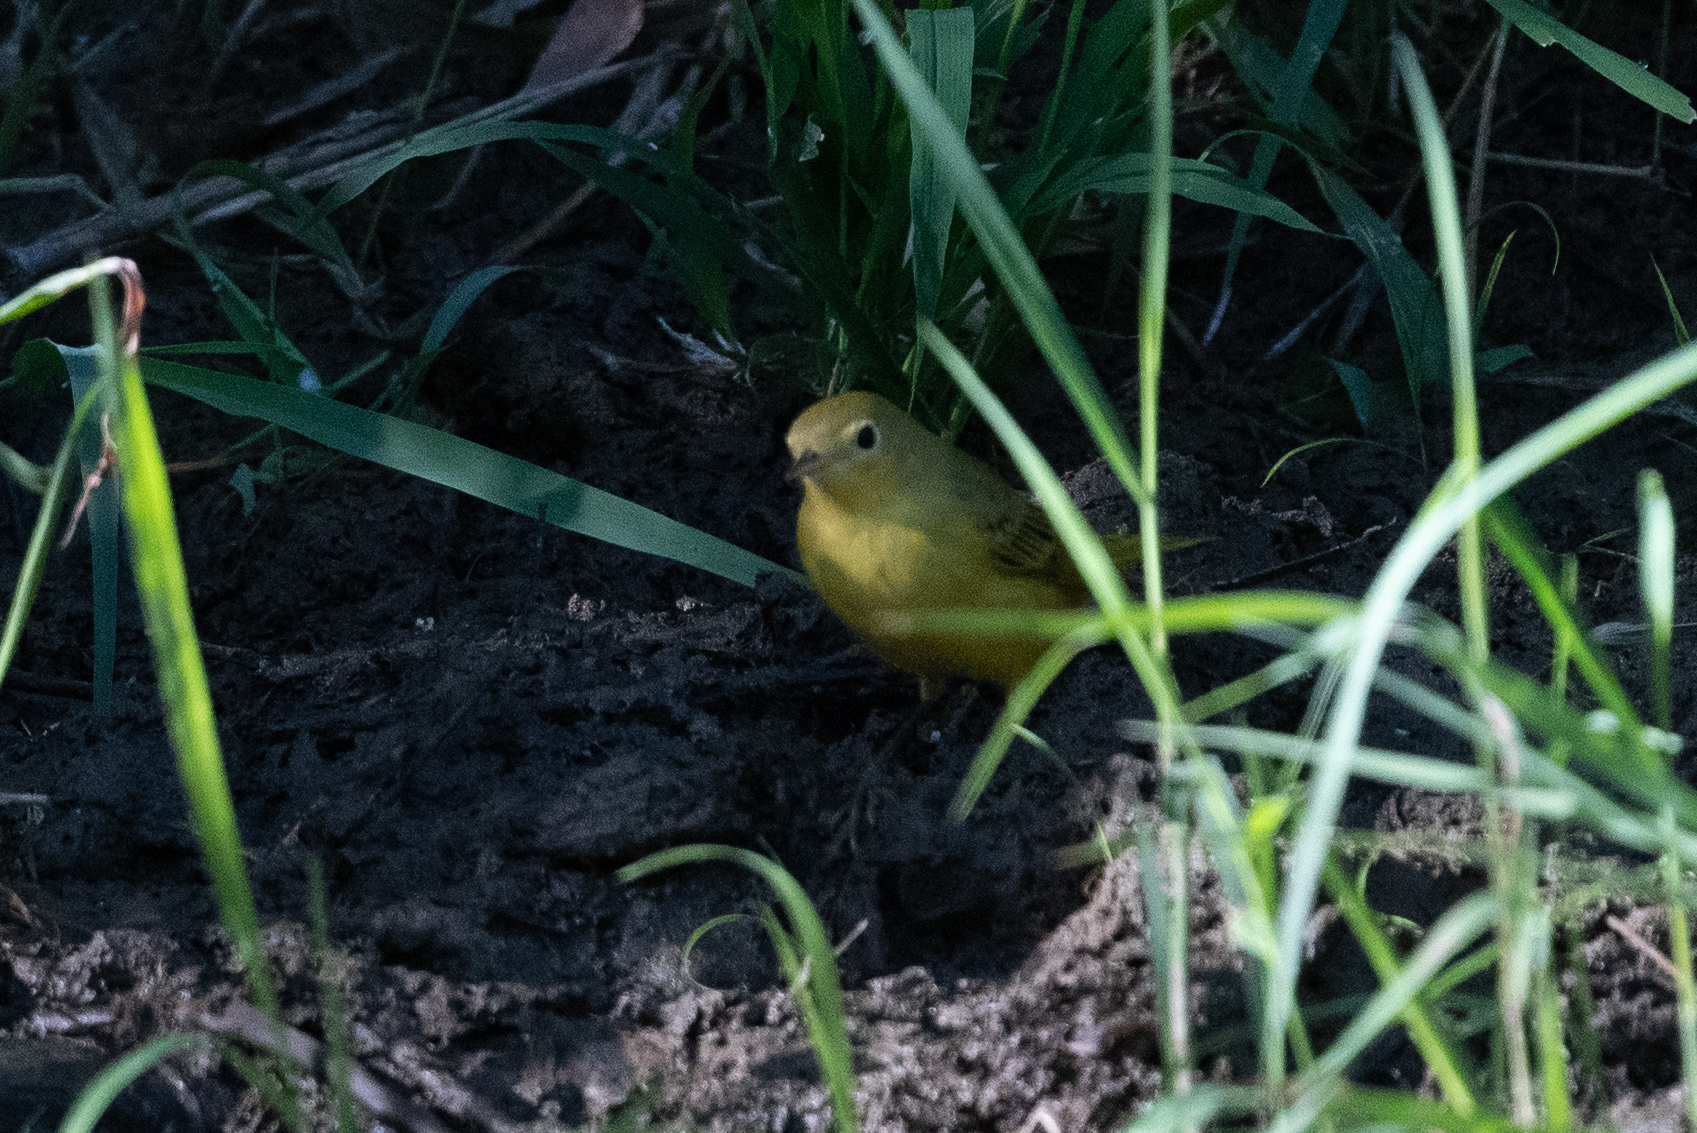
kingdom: Animalia
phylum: Chordata
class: Aves
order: Passeriformes
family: Parulidae
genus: Setophaga
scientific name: Setophaga petechia
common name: Yellow warbler
